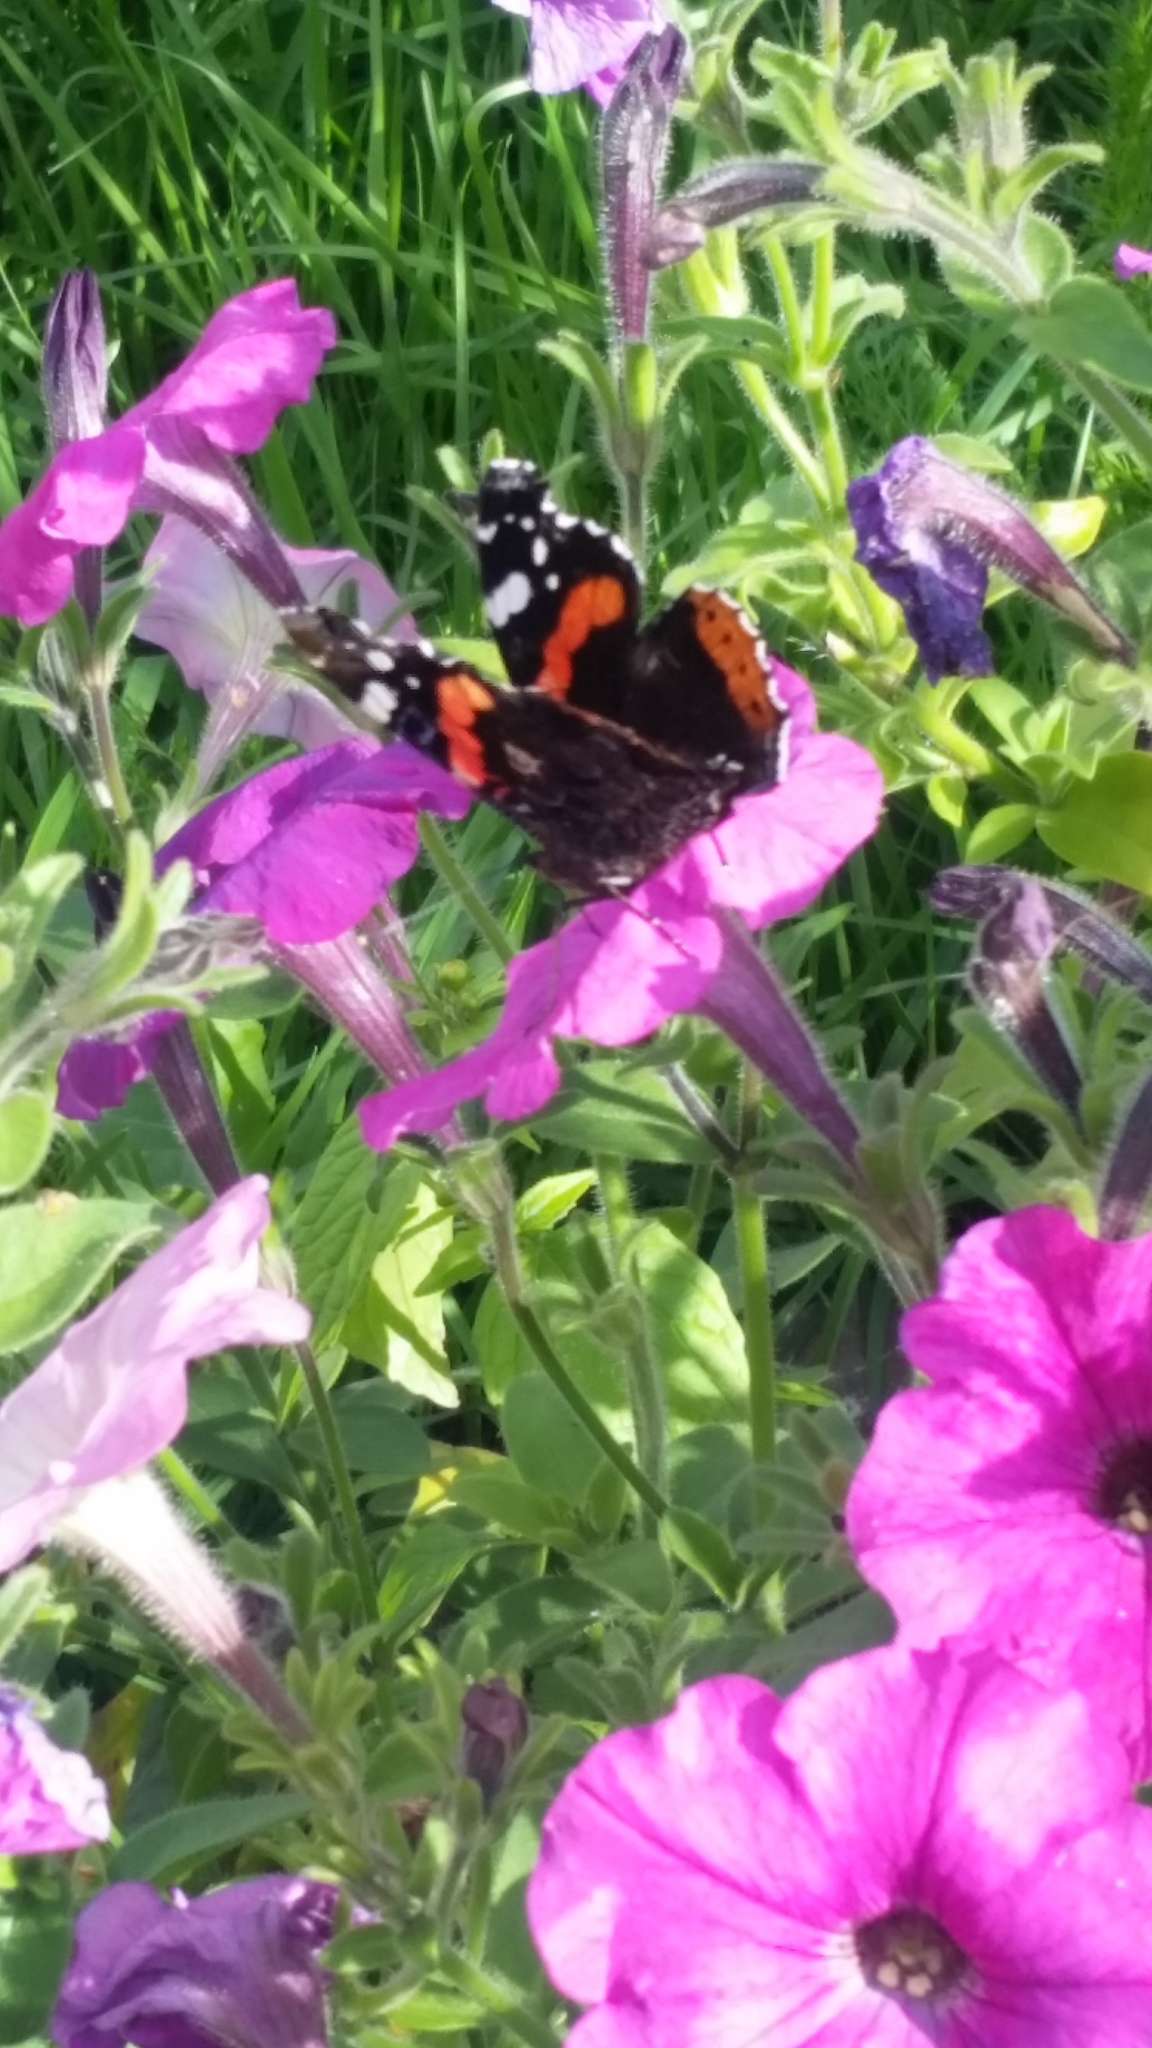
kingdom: Animalia
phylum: Arthropoda
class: Insecta
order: Lepidoptera
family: Nymphalidae
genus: Vanessa
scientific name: Vanessa atalanta
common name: Red admiral
